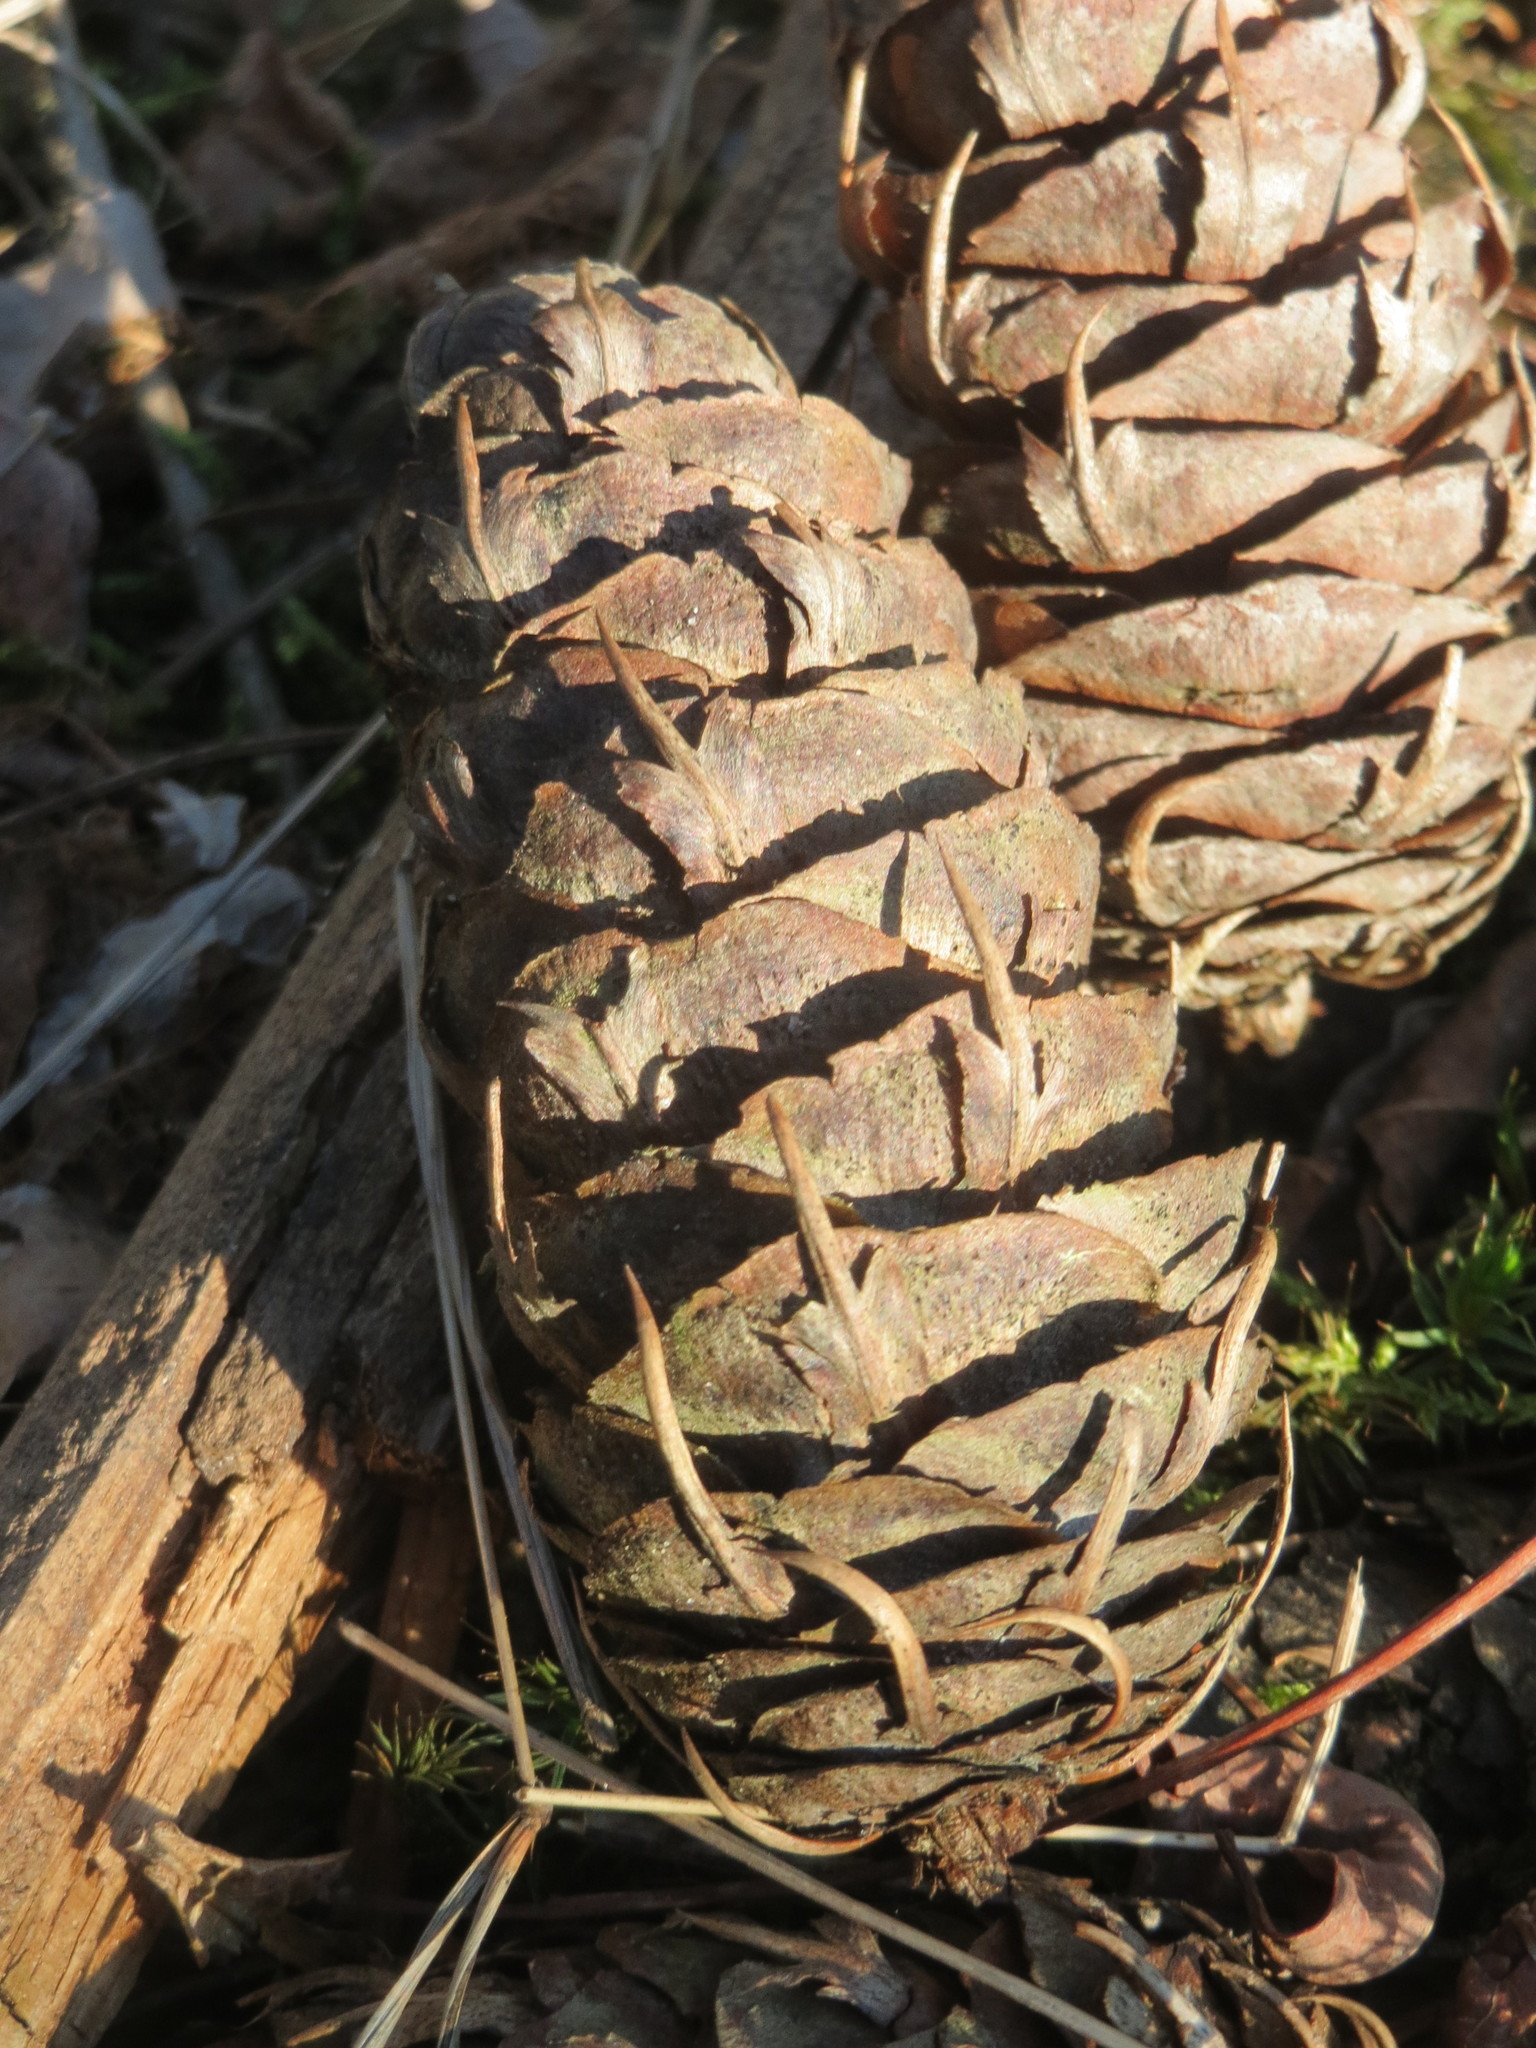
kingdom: Plantae
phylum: Tracheophyta
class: Pinopsida
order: Pinales
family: Pinaceae
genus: Pseudotsuga
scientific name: Pseudotsuga menziesii
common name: Douglas fir
